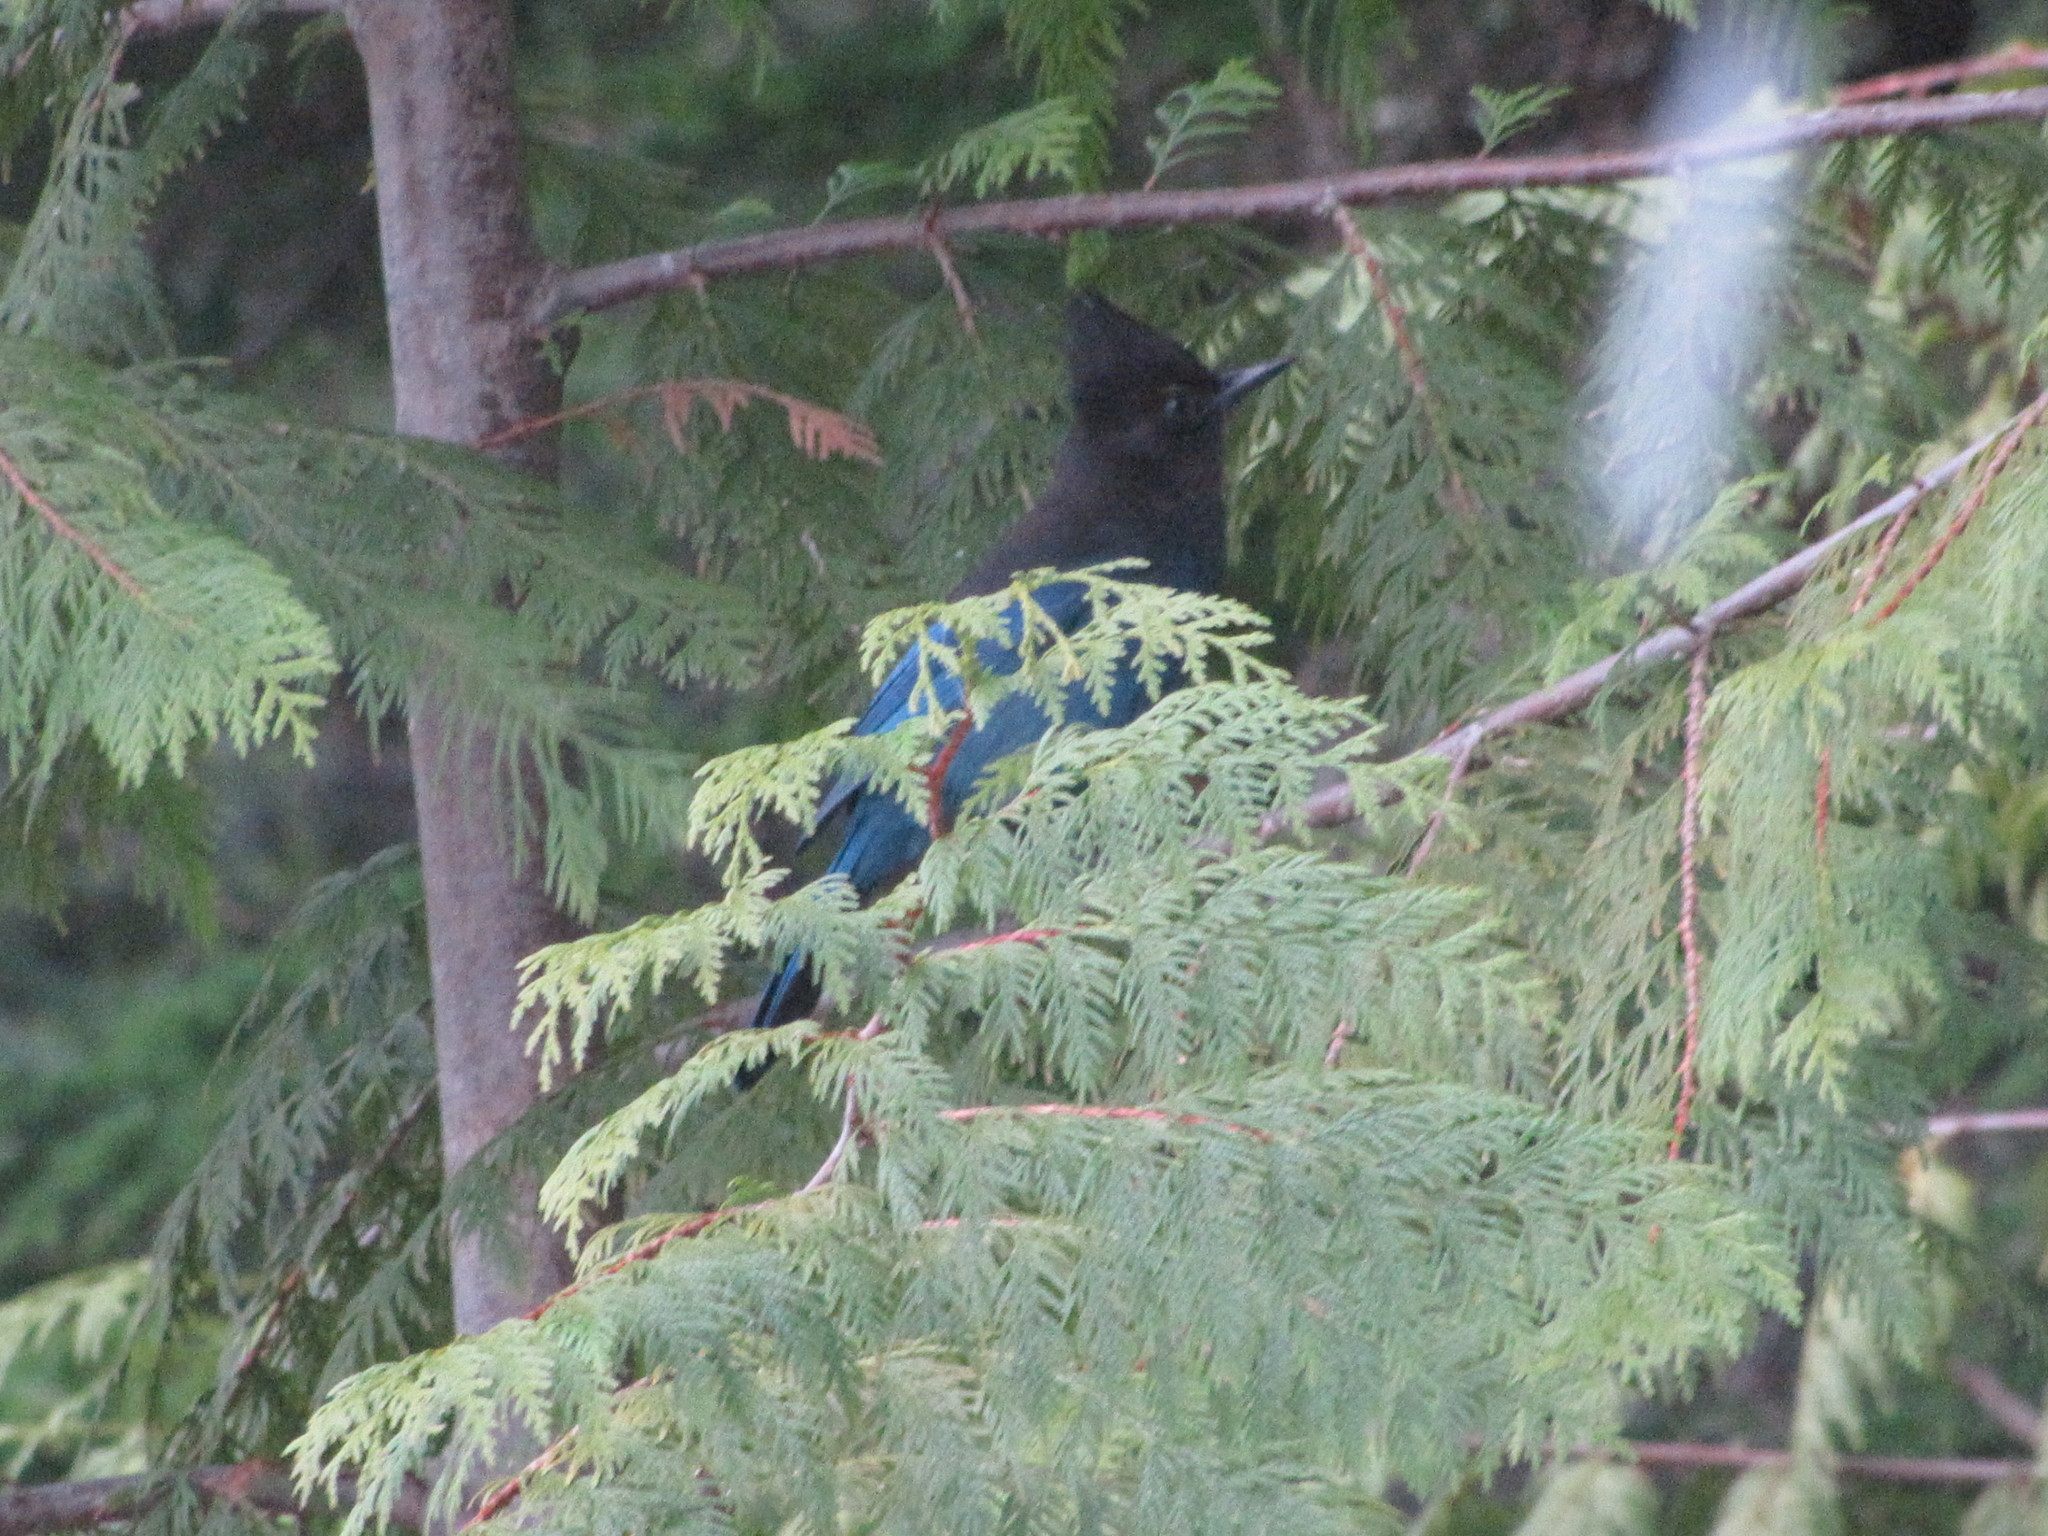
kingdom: Animalia
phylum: Chordata
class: Aves
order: Passeriformes
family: Corvidae
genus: Cyanocitta
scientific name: Cyanocitta stelleri
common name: Steller's jay
